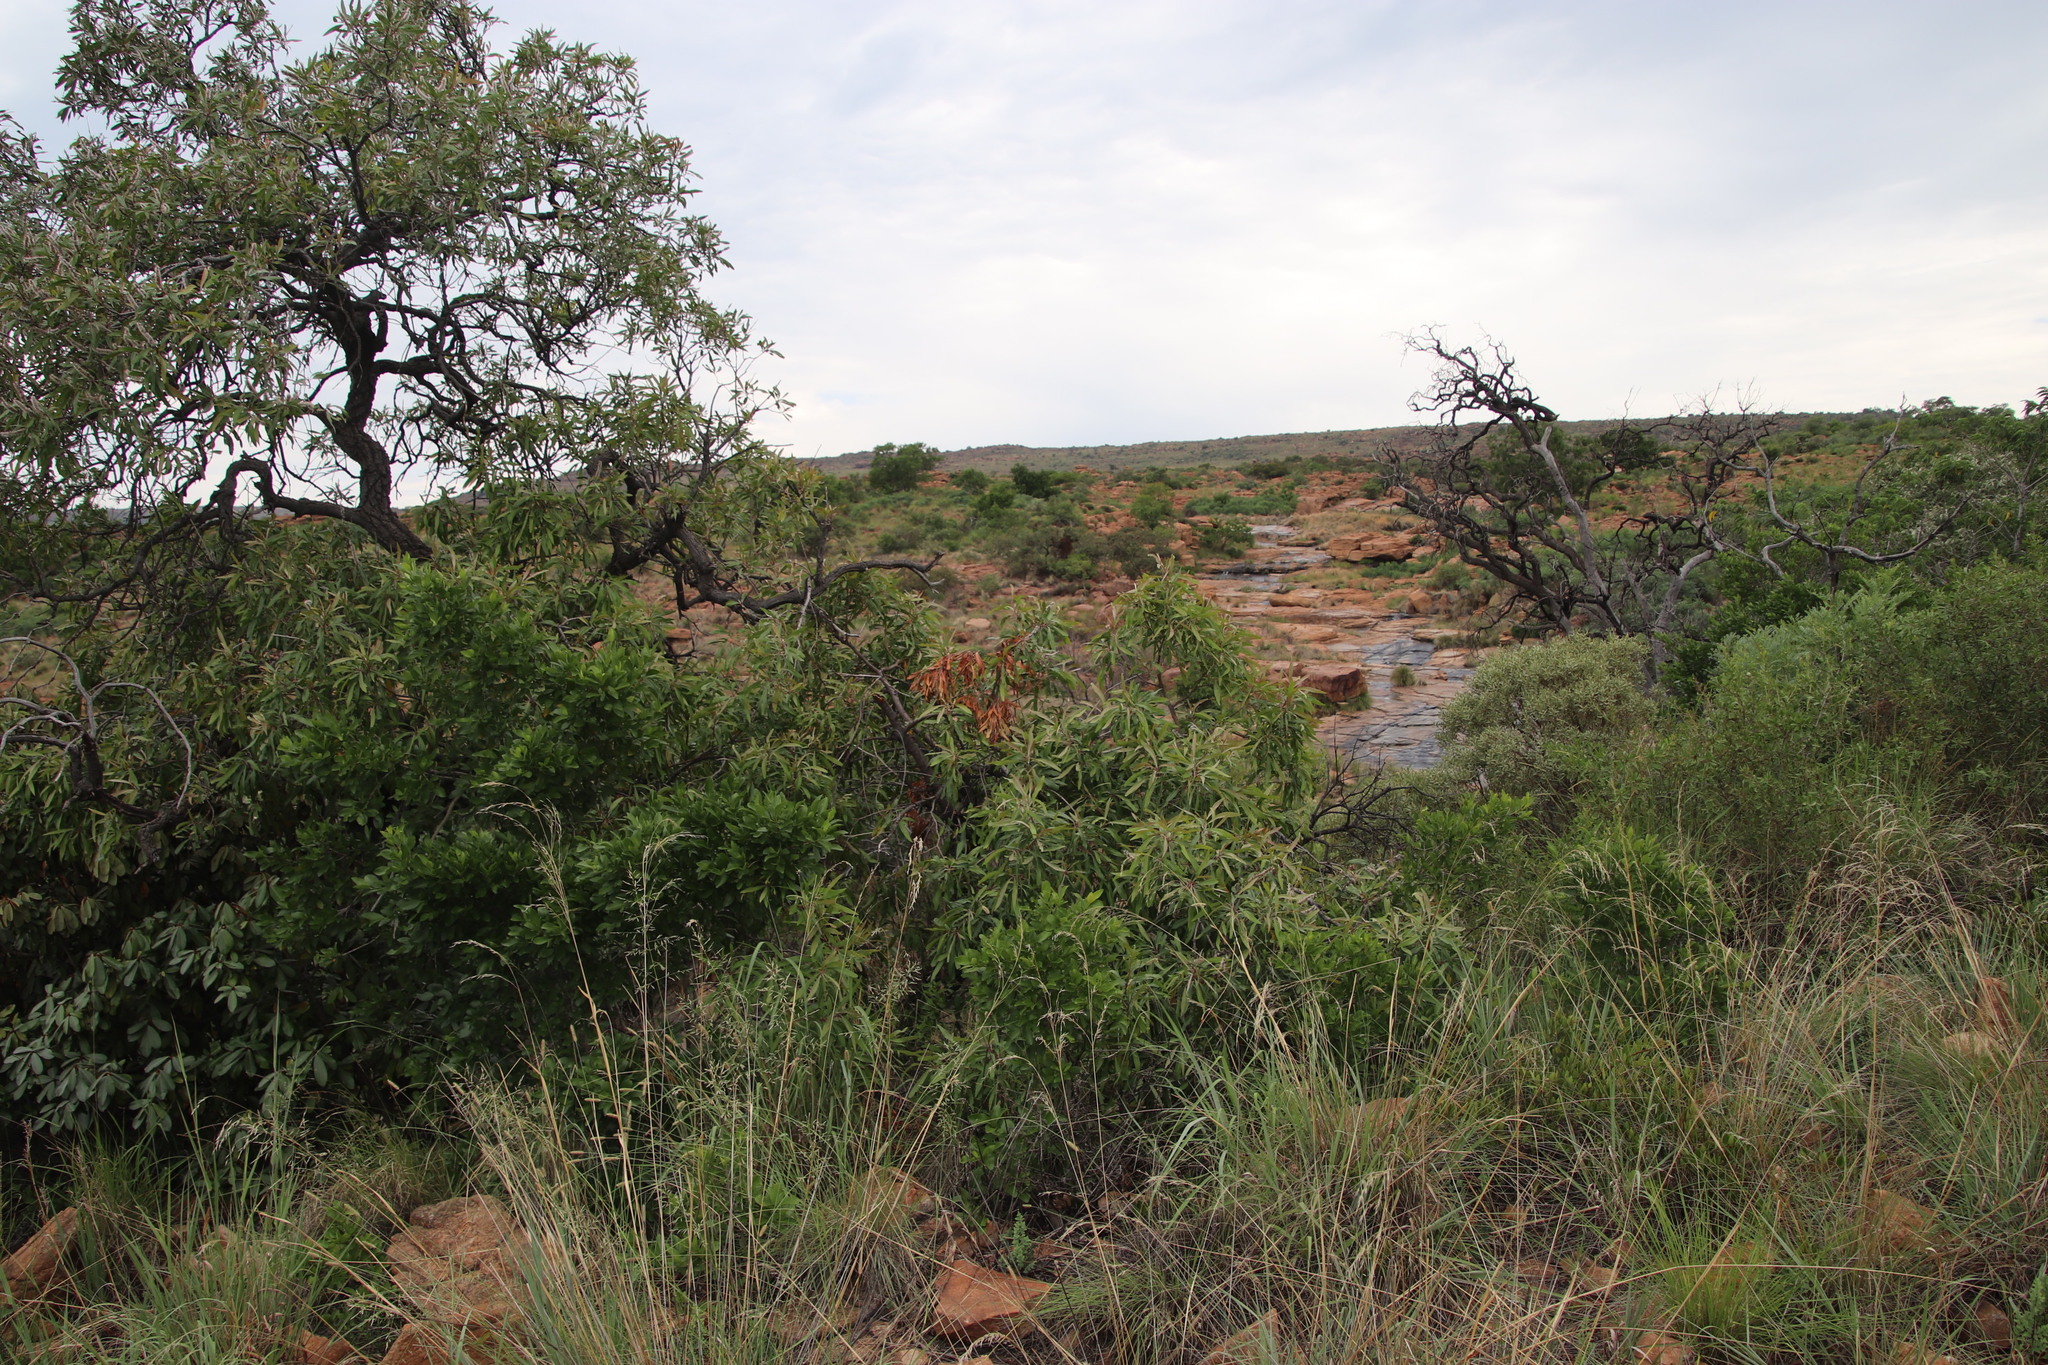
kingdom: Plantae
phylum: Tracheophyta
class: Magnoliopsida
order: Proteales
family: Proteaceae
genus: Faurea
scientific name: Faurea saligna
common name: African bean
